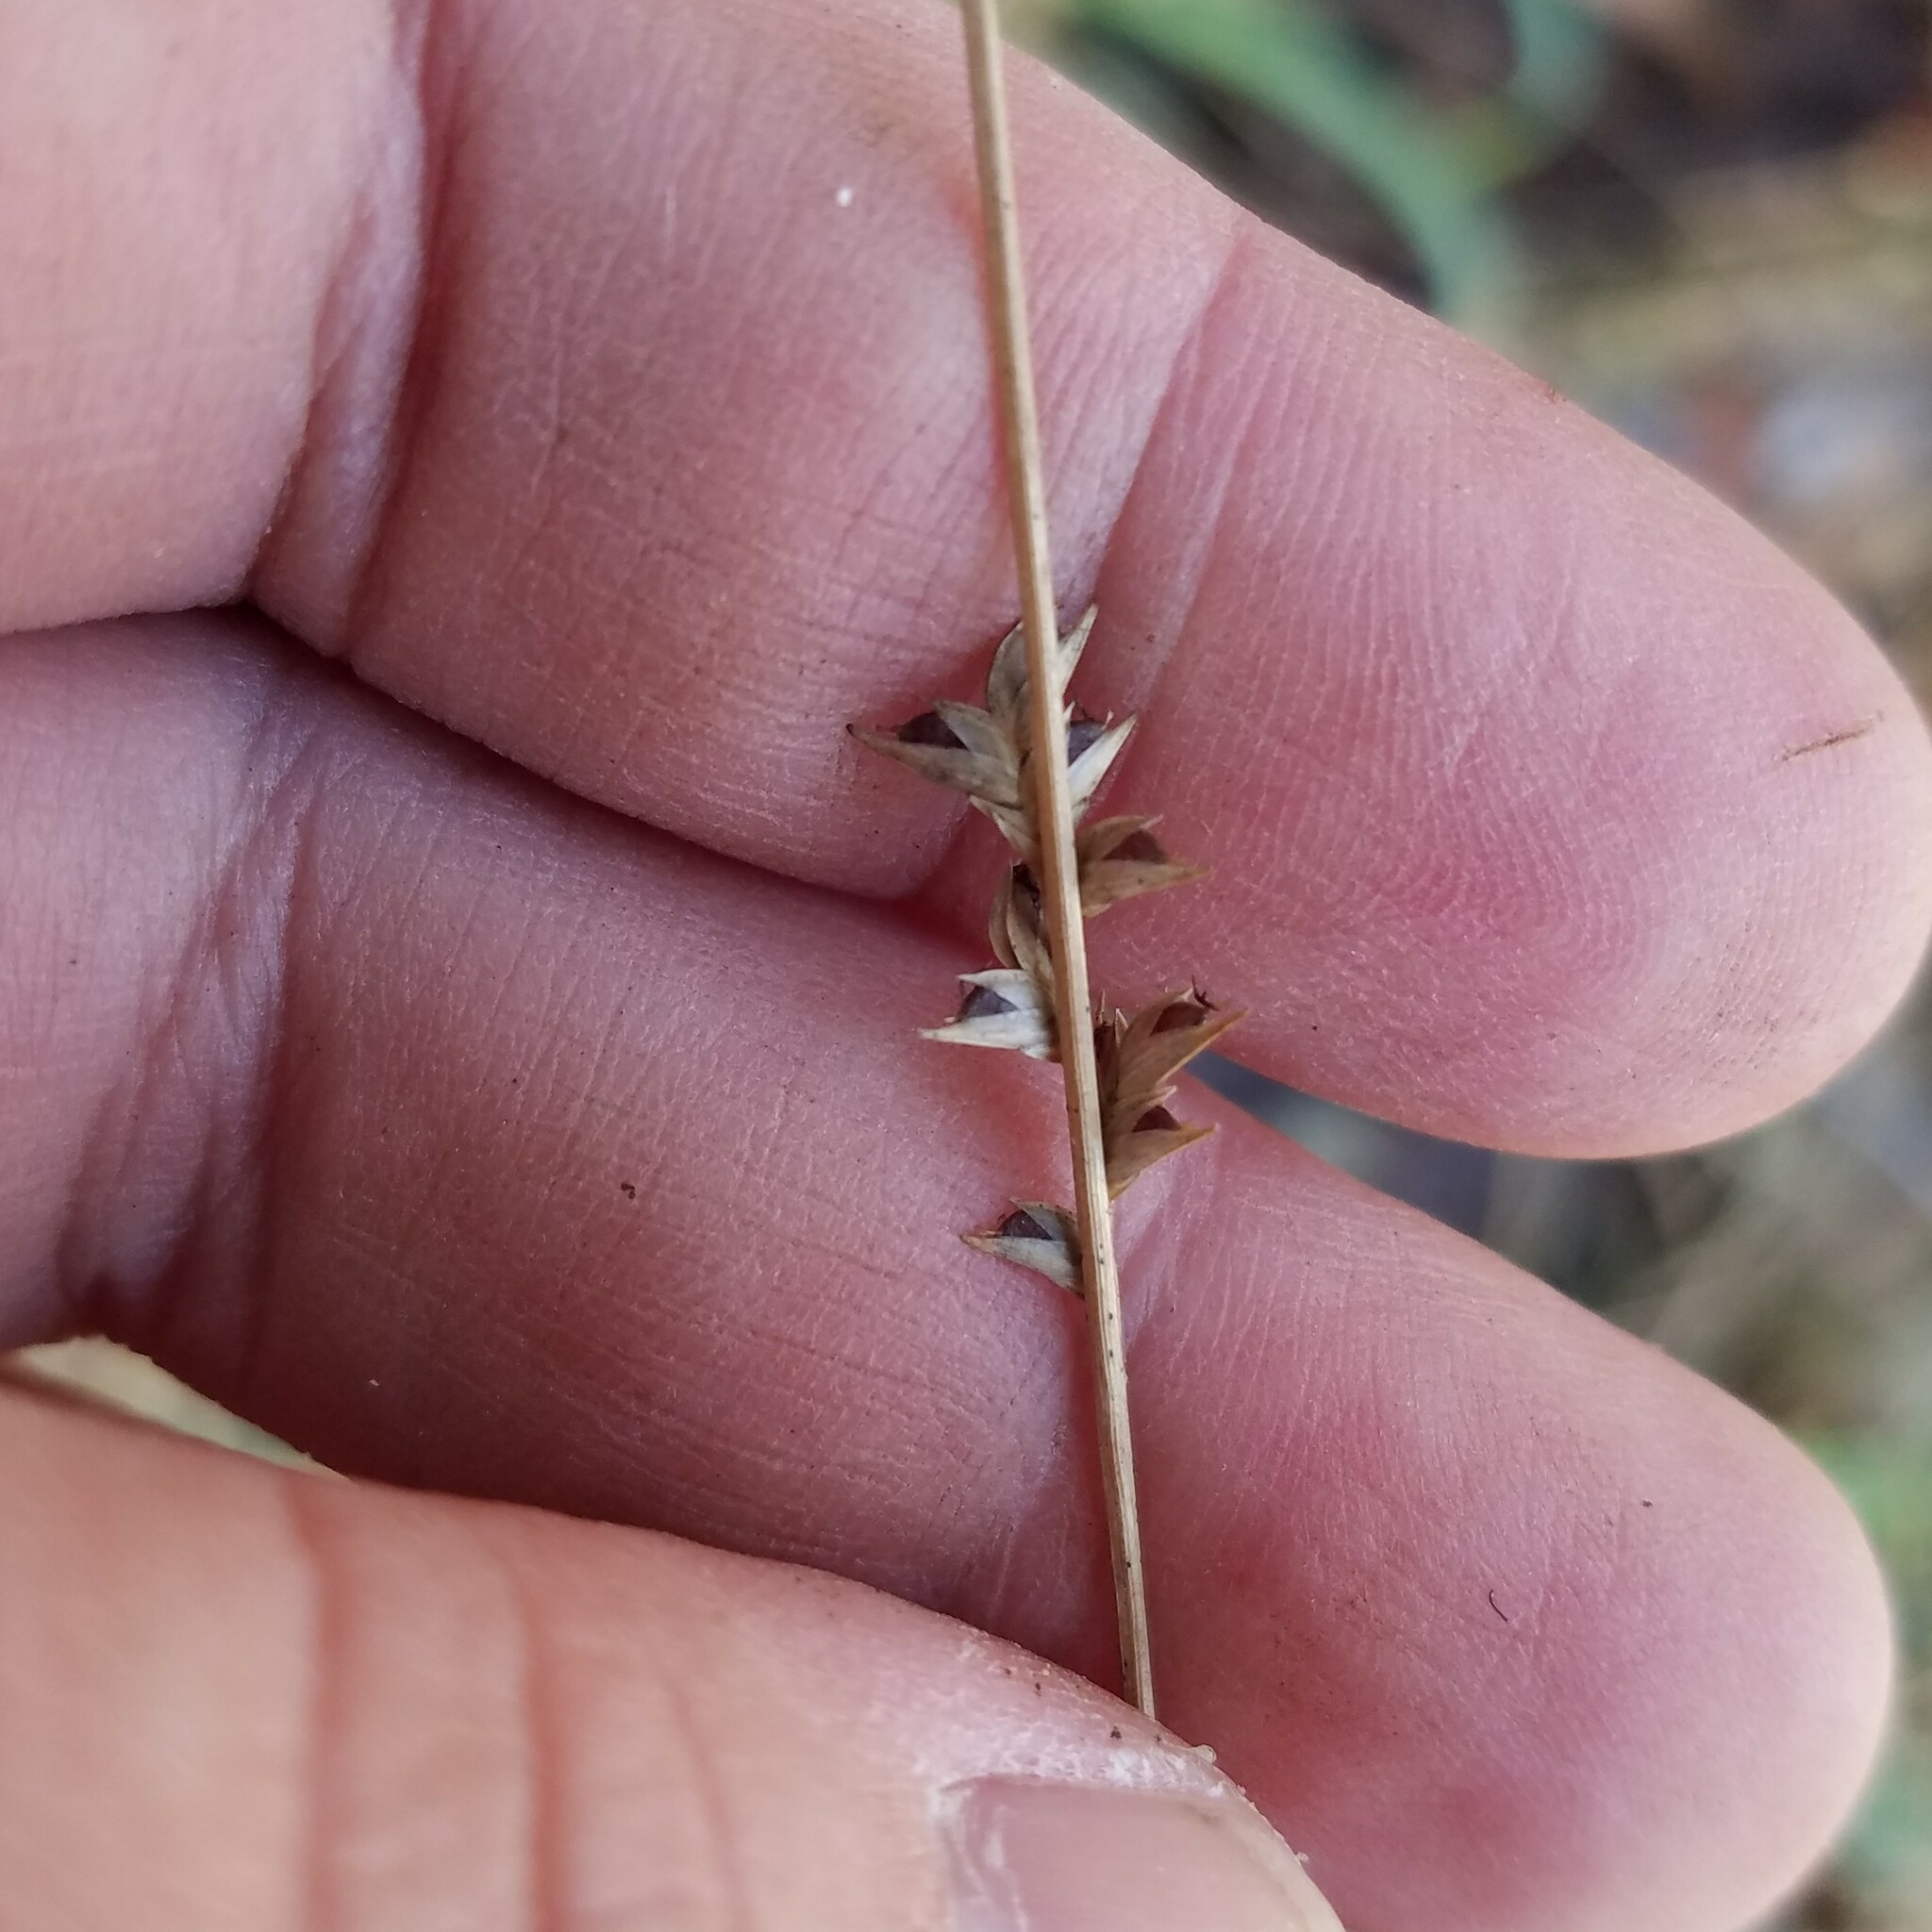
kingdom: Plantae
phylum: Tracheophyta
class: Liliopsida
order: Poales
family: Poaceae
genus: Chasmanthium
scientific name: Chasmanthium laxum
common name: Slender chasmanthium
